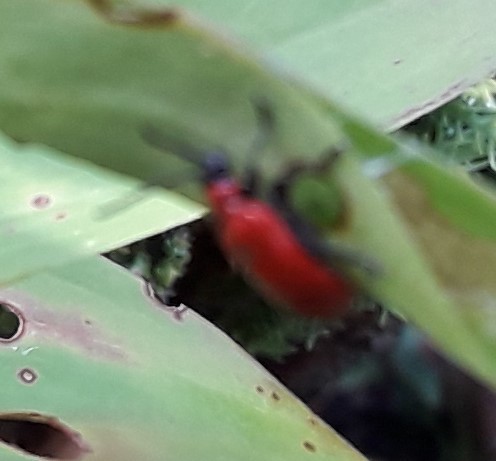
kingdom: Animalia
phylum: Arthropoda
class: Insecta
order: Coleoptera
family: Chrysomelidae
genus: Lilioceris
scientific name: Lilioceris lilii
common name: Lily beetle
